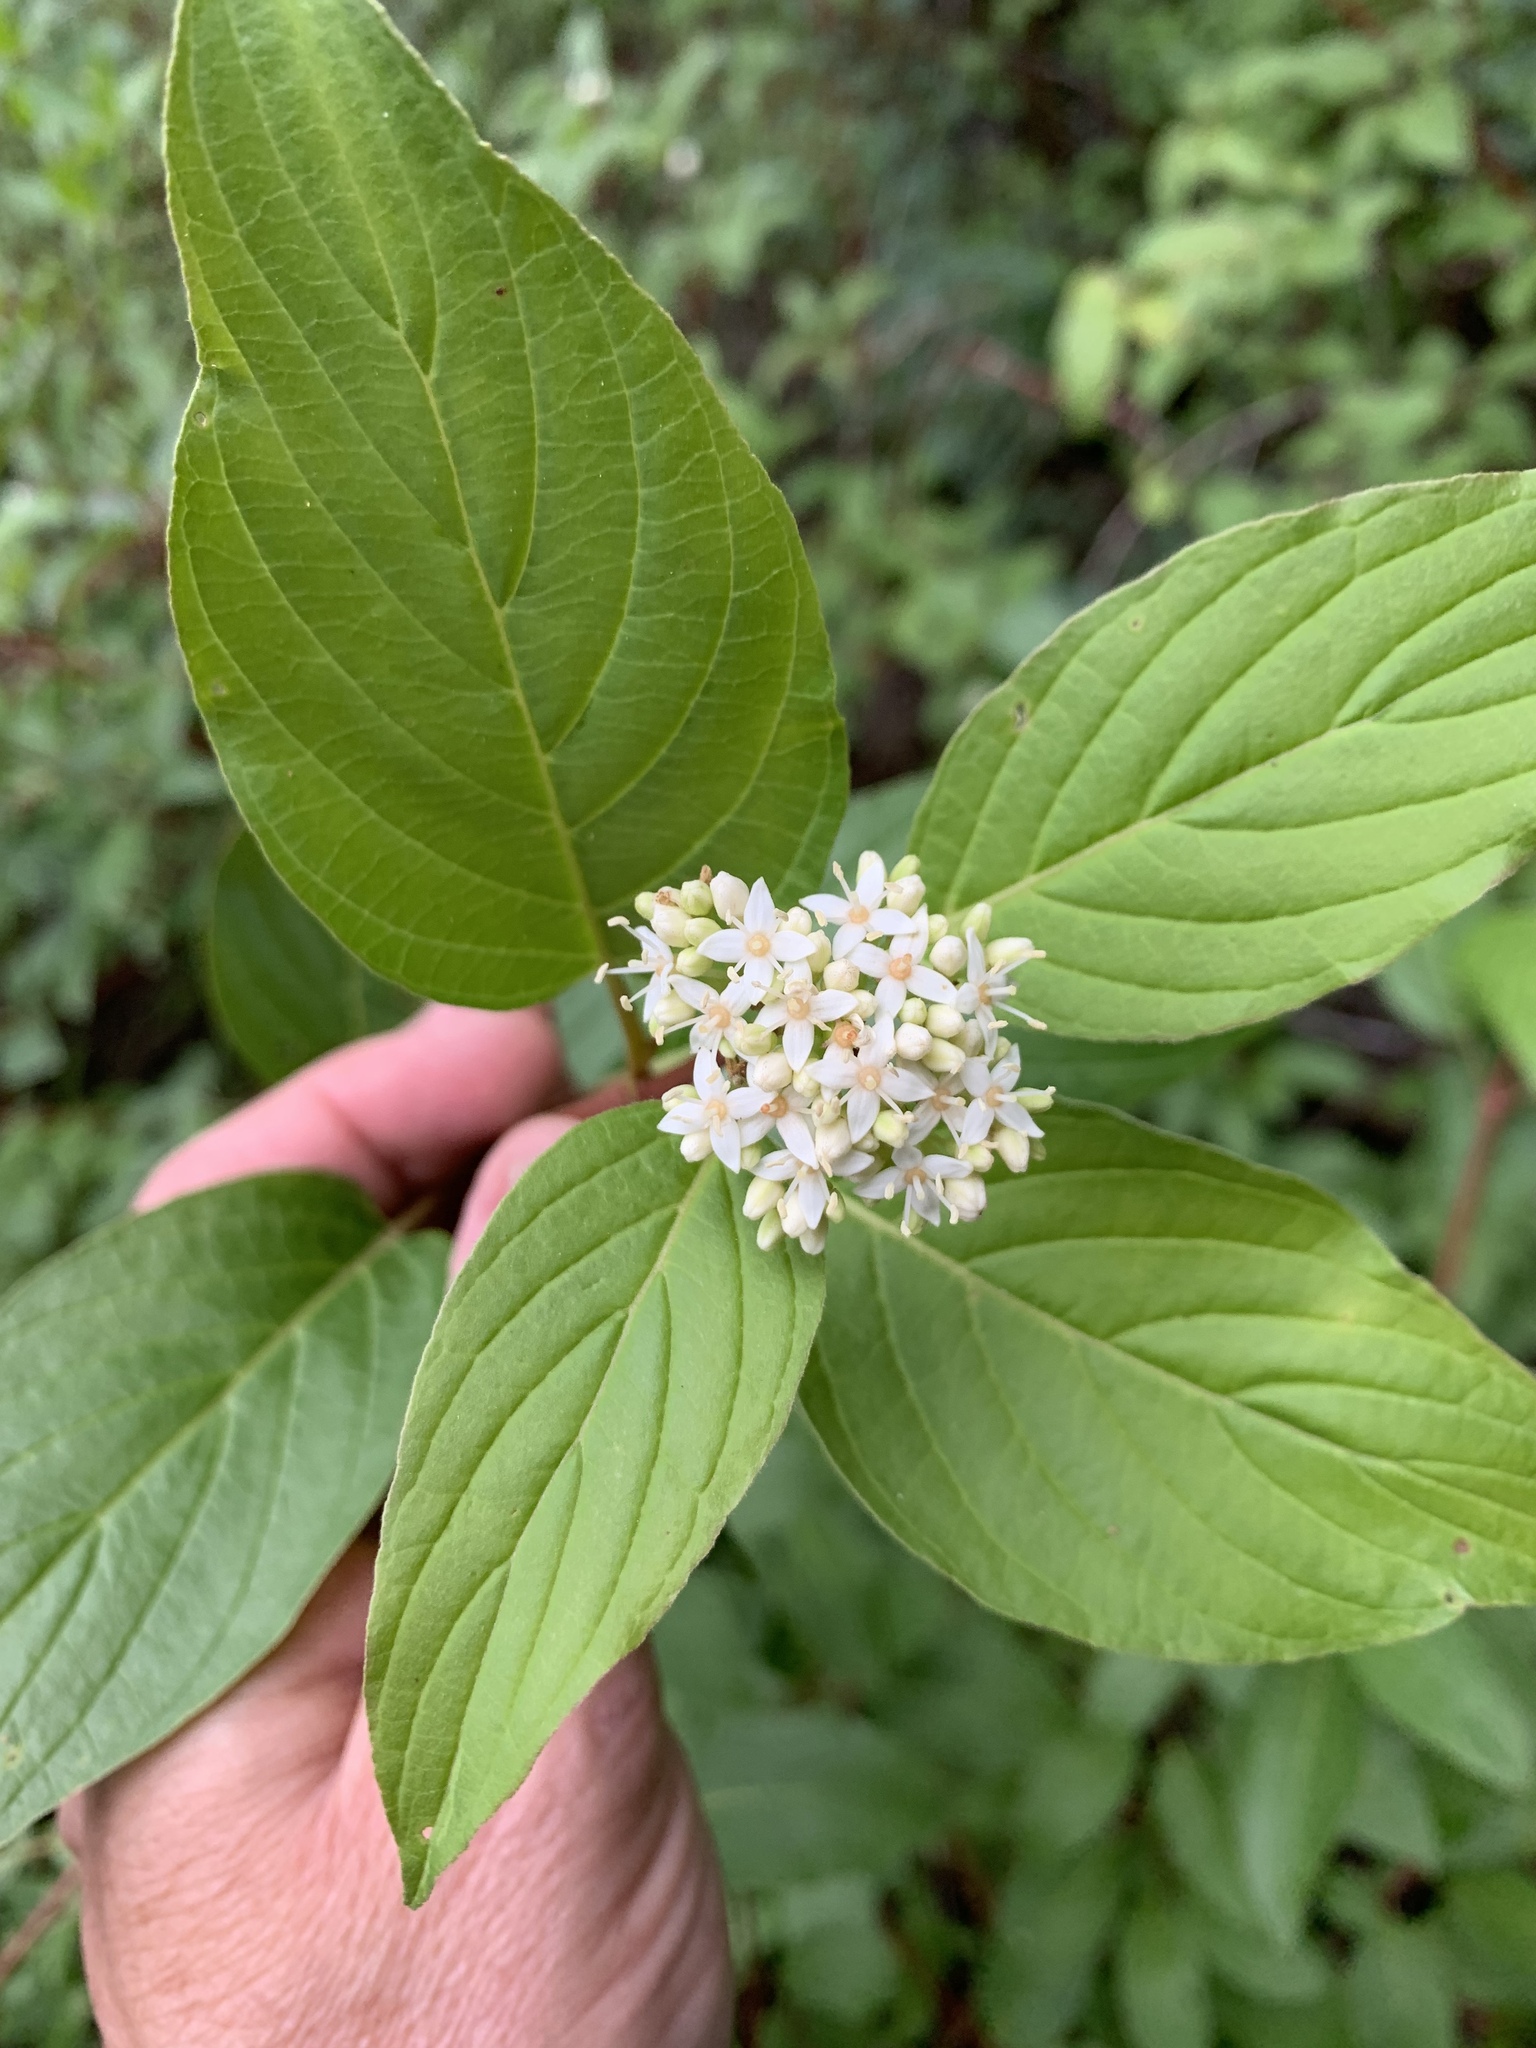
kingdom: Plantae
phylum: Tracheophyta
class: Magnoliopsida
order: Cornales
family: Cornaceae
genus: Cornus
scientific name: Cornus sericea
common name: Red-osier dogwood
